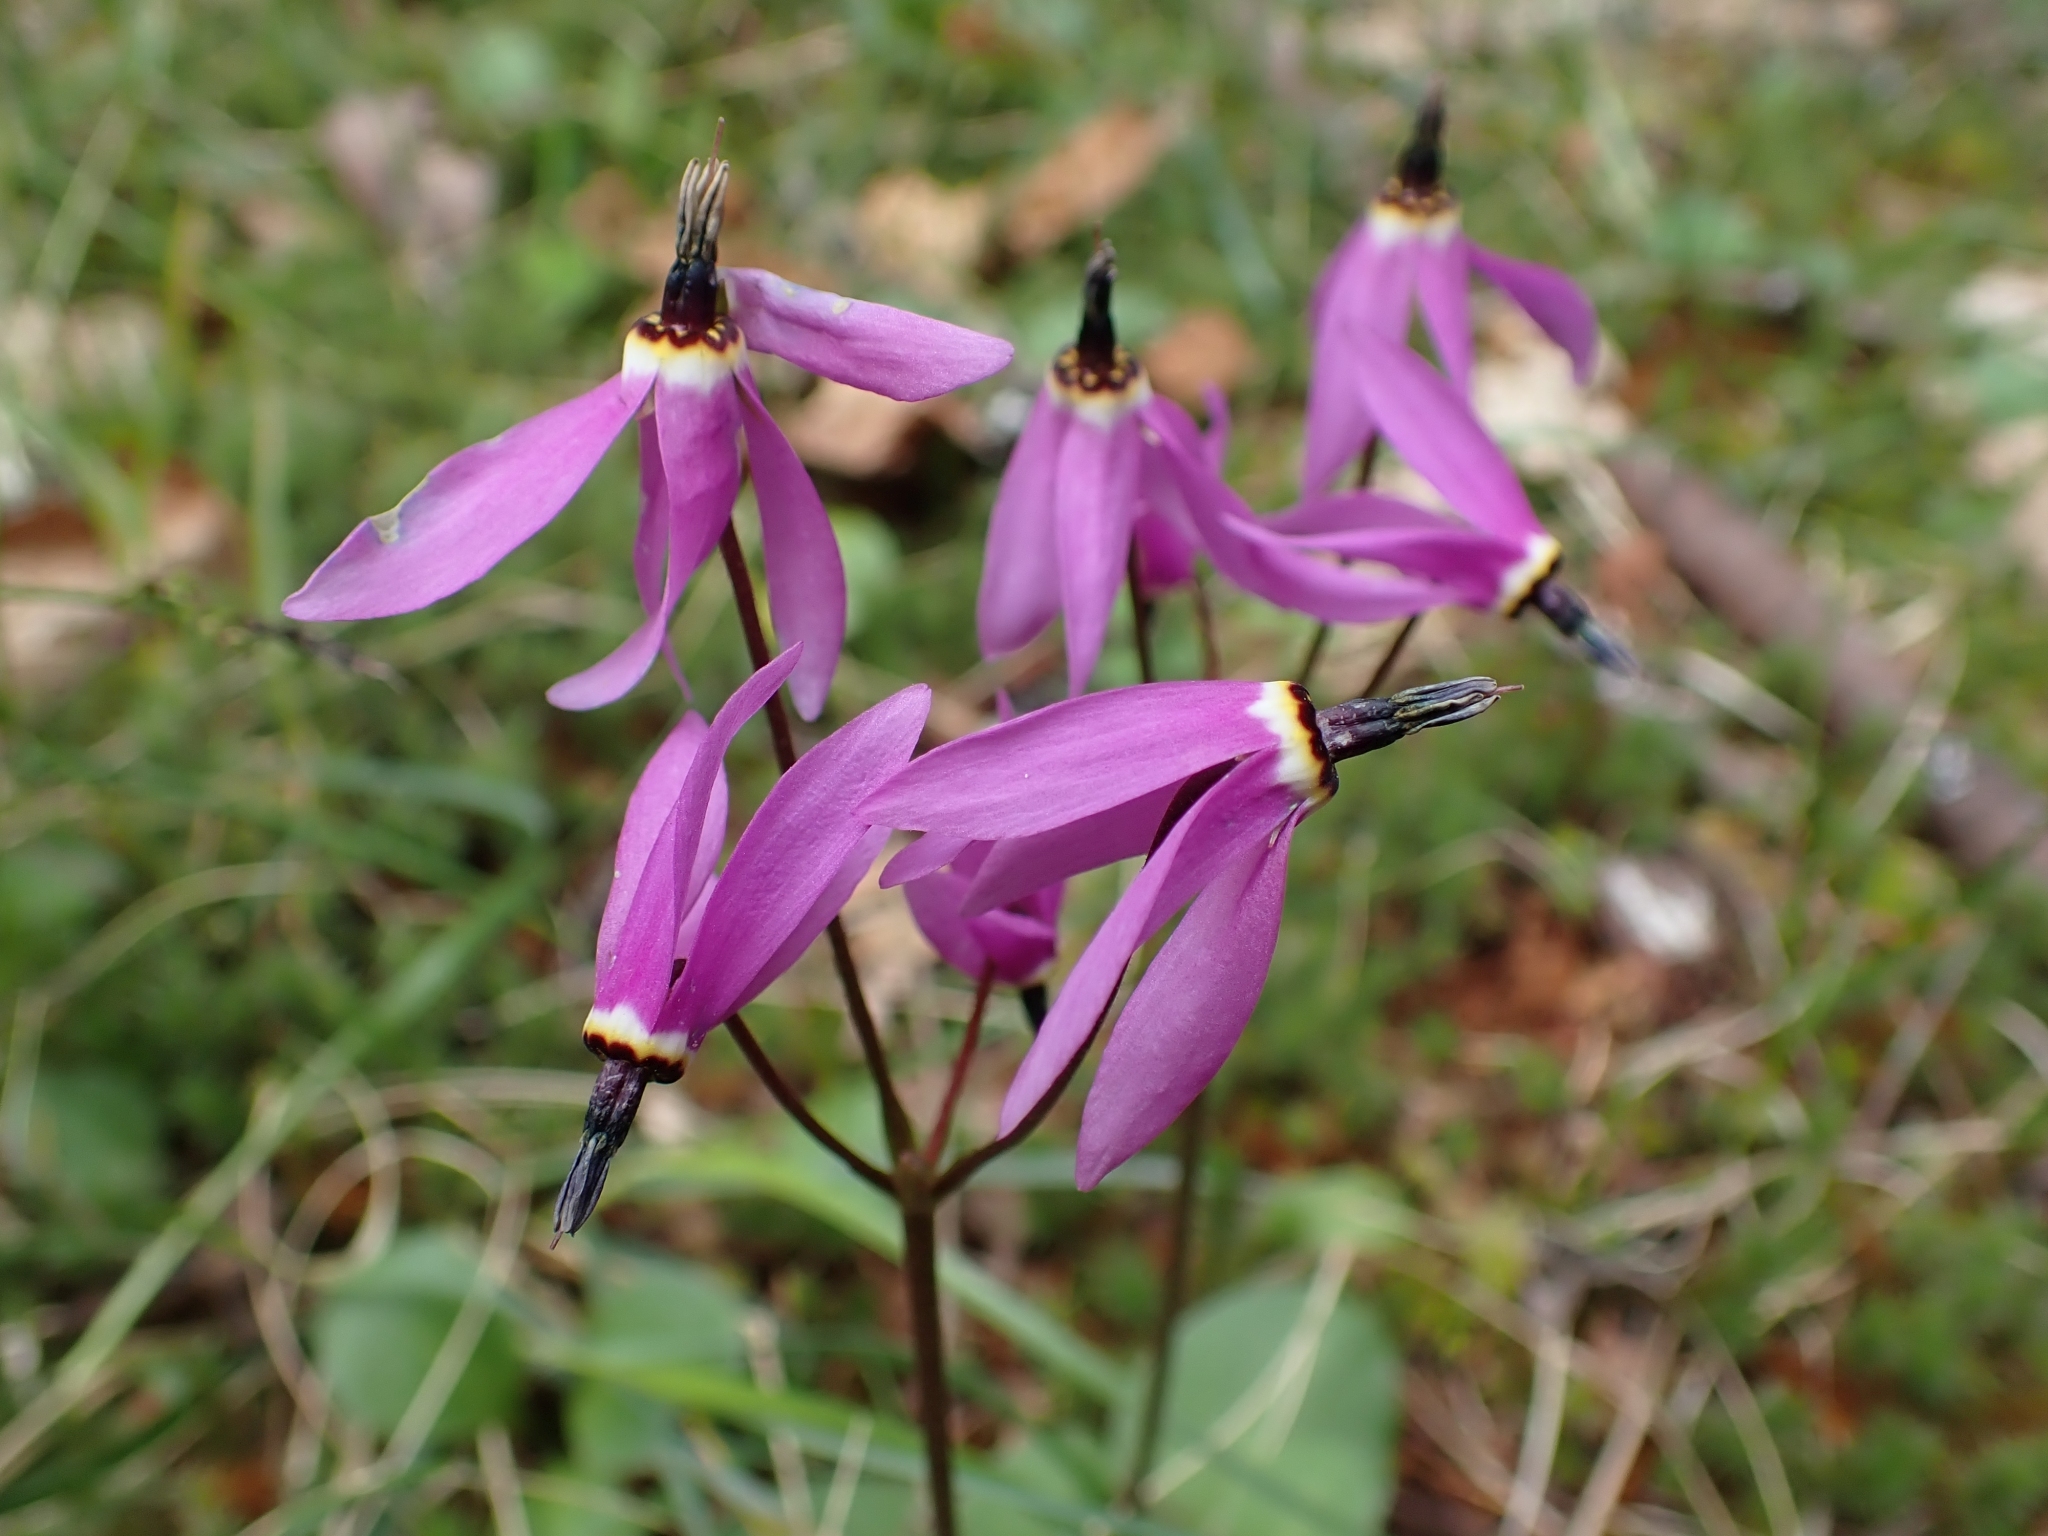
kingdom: Plantae
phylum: Tracheophyta
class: Magnoliopsida
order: Ericales
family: Primulaceae
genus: Dodecatheon
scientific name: Dodecatheon hendersonii
